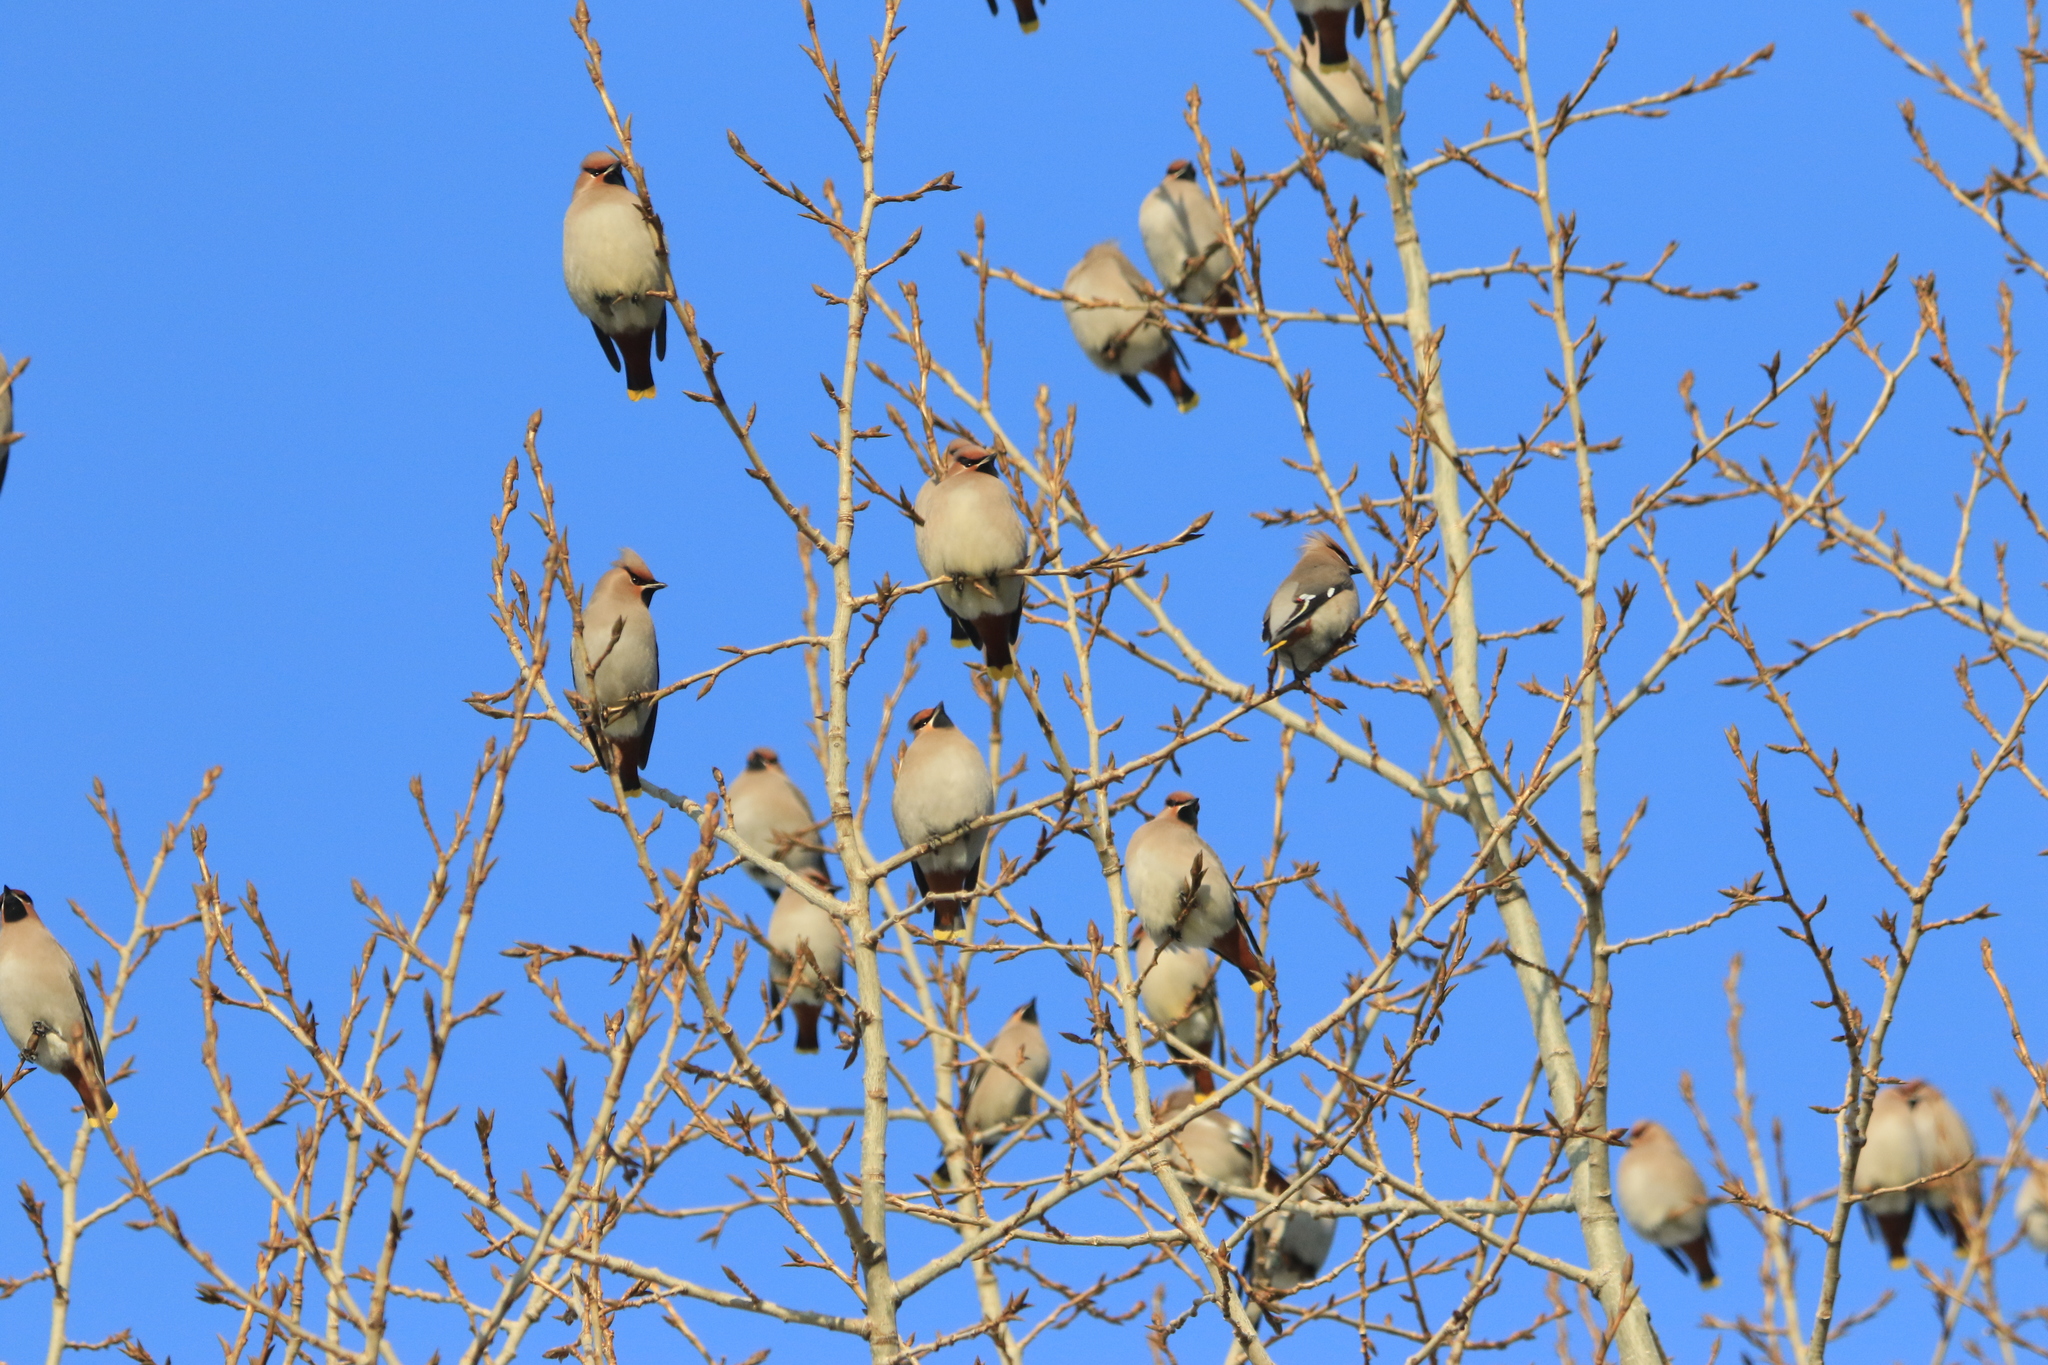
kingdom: Animalia
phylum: Chordata
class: Aves
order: Passeriformes
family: Bombycillidae
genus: Bombycilla
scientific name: Bombycilla garrulus
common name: Bohemian waxwing
